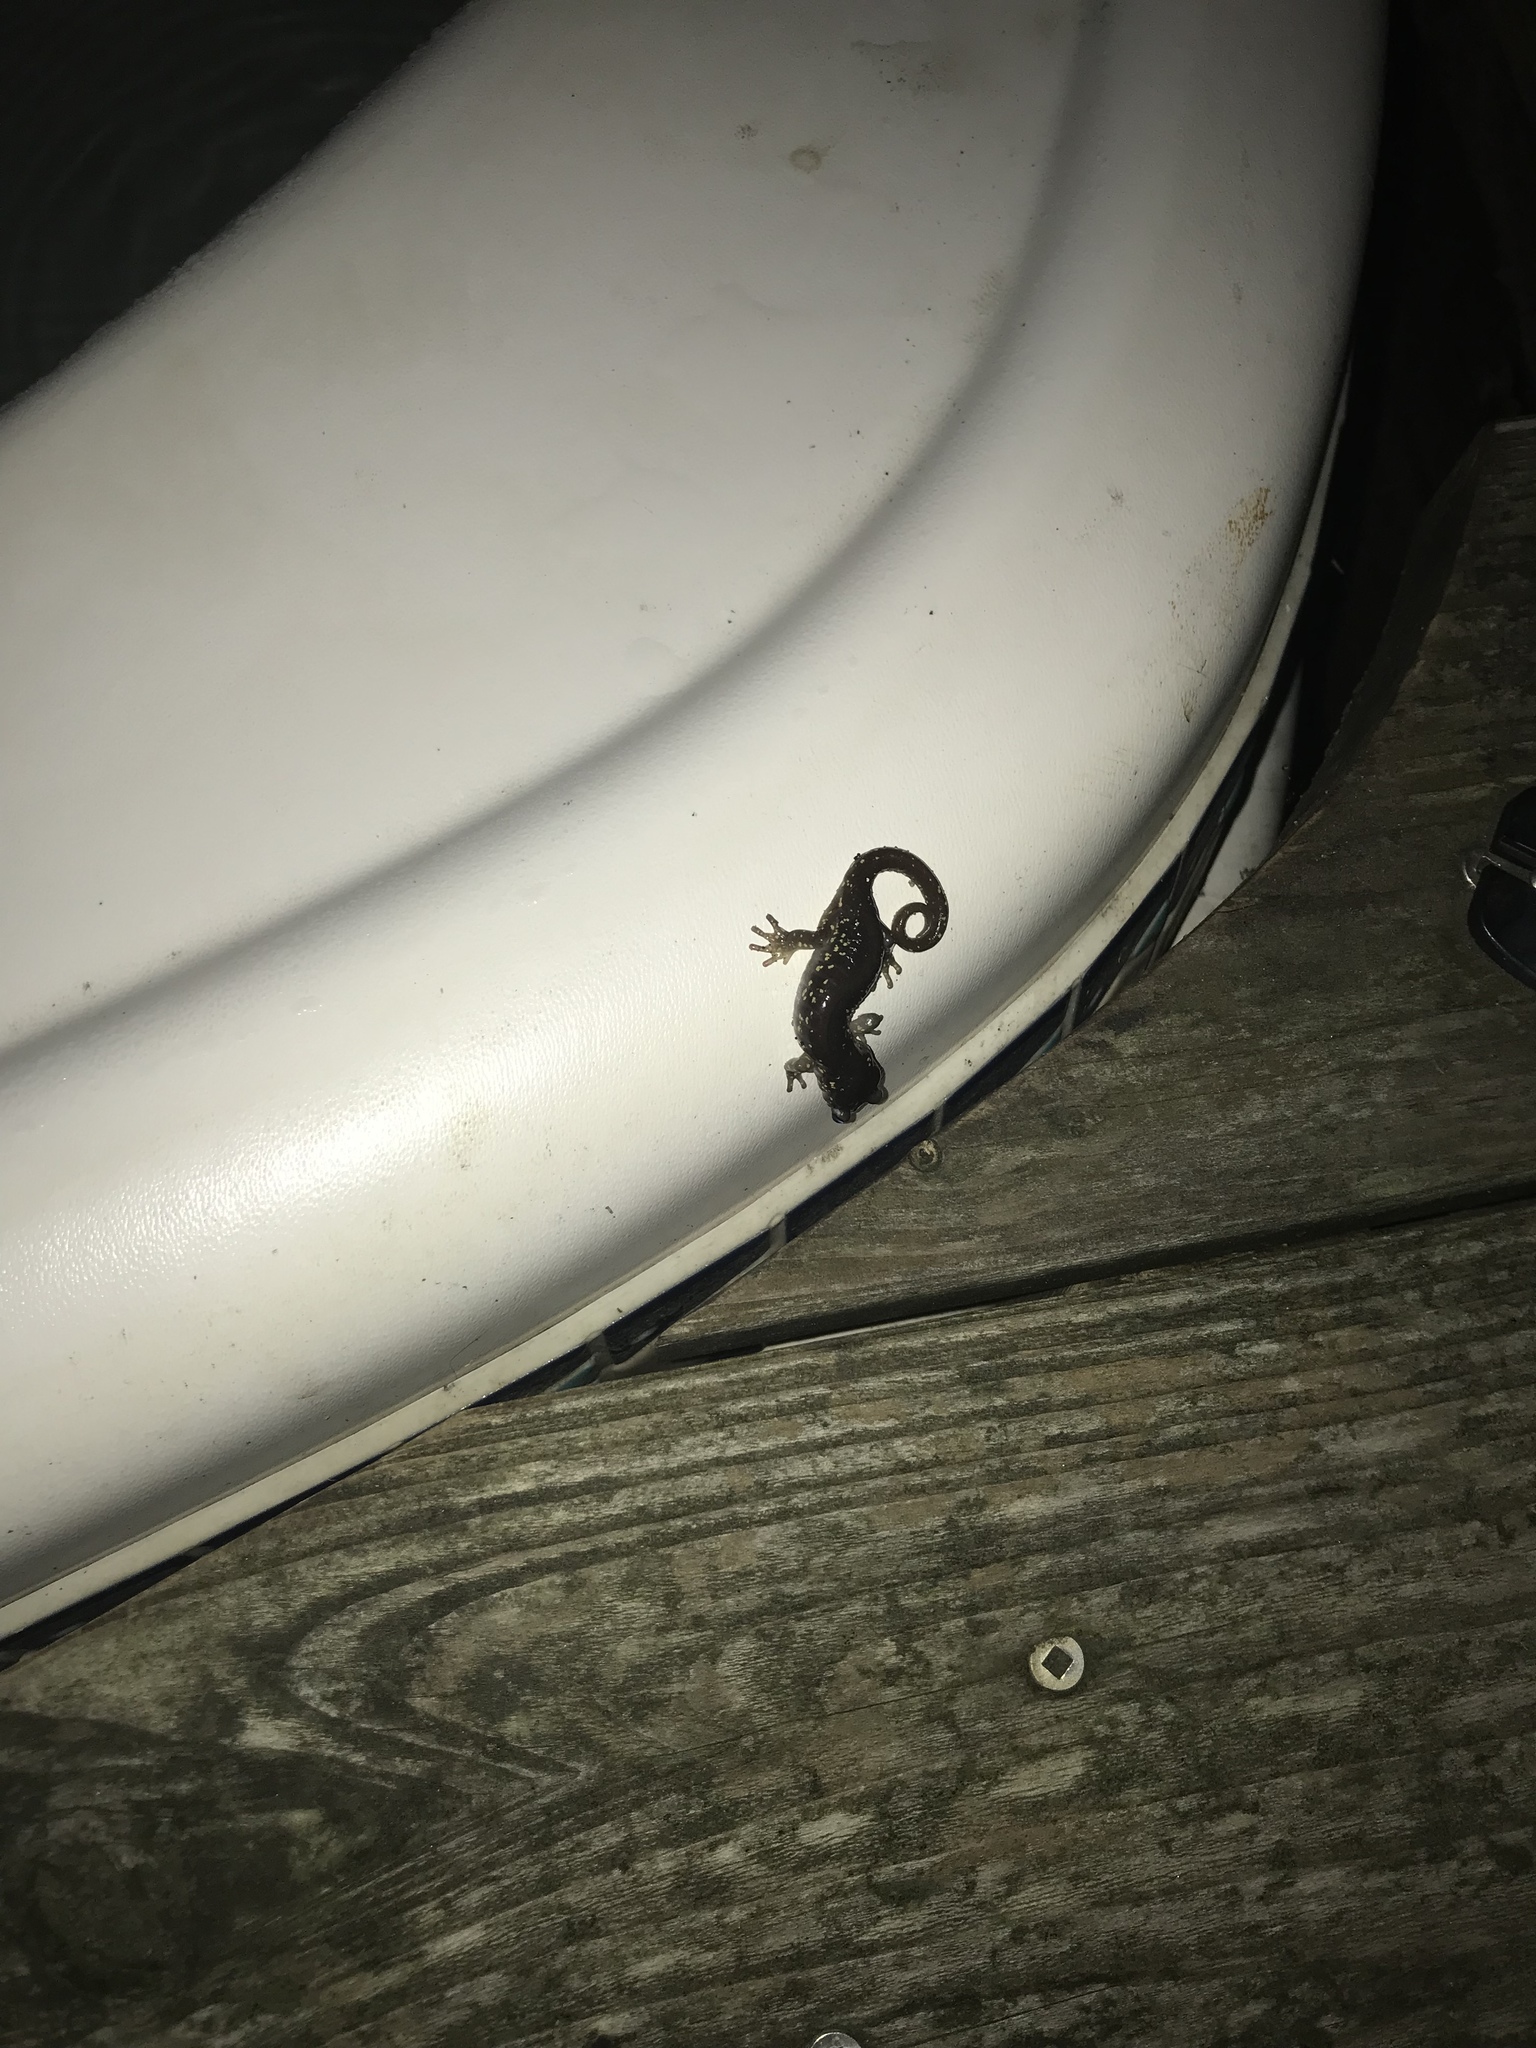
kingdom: Animalia
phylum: Chordata
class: Amphibia
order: Caudata
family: Plethodontidae
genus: Aneides
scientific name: Aneides lugubris
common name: Arboreal salamander
